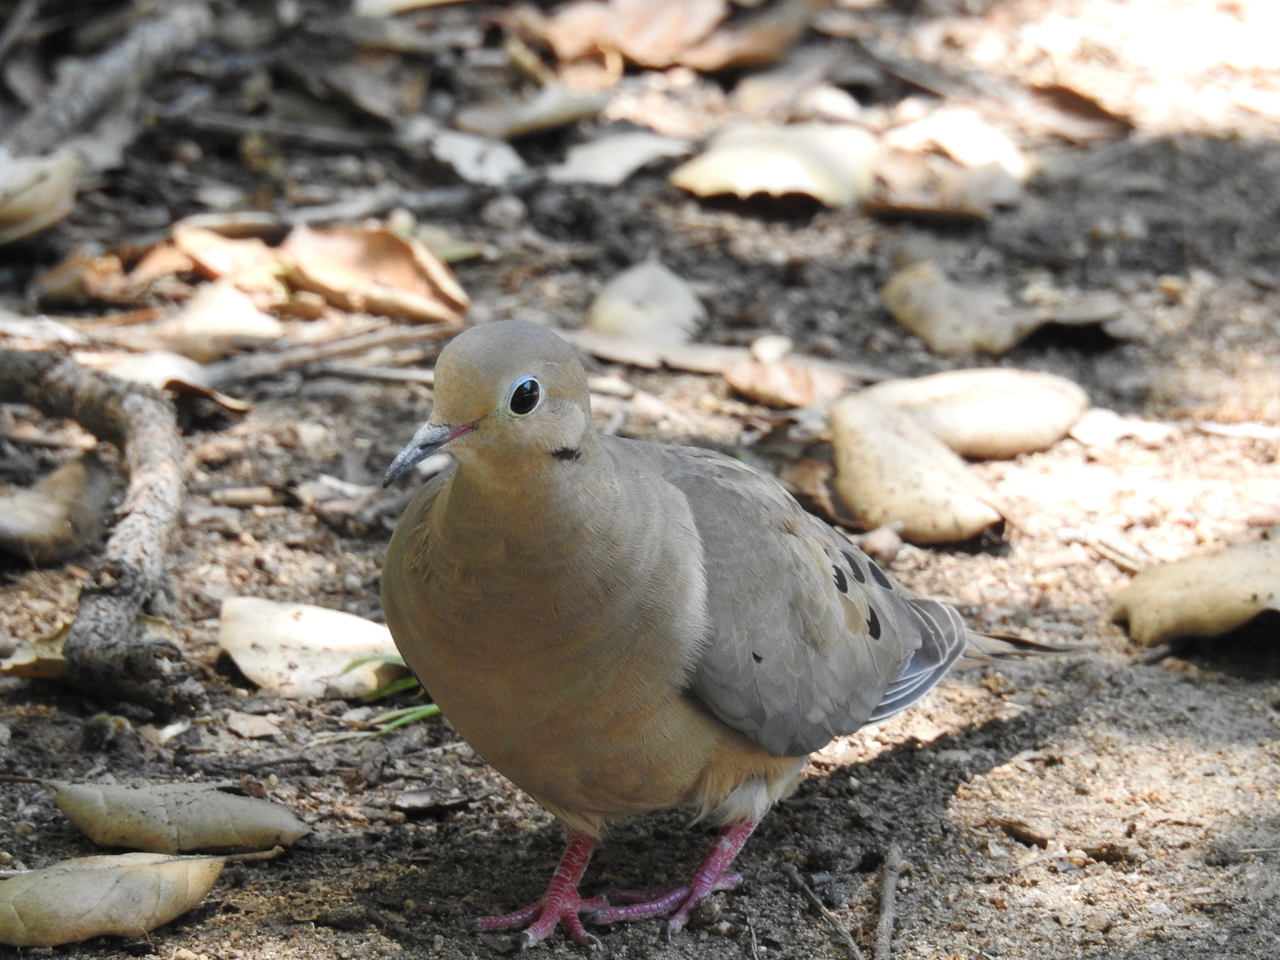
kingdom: Animalia
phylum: Chordata
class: Aves
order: Columbiformes
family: Columbidae
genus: Zenaida
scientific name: Zenaida macroura
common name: Mourning dove
